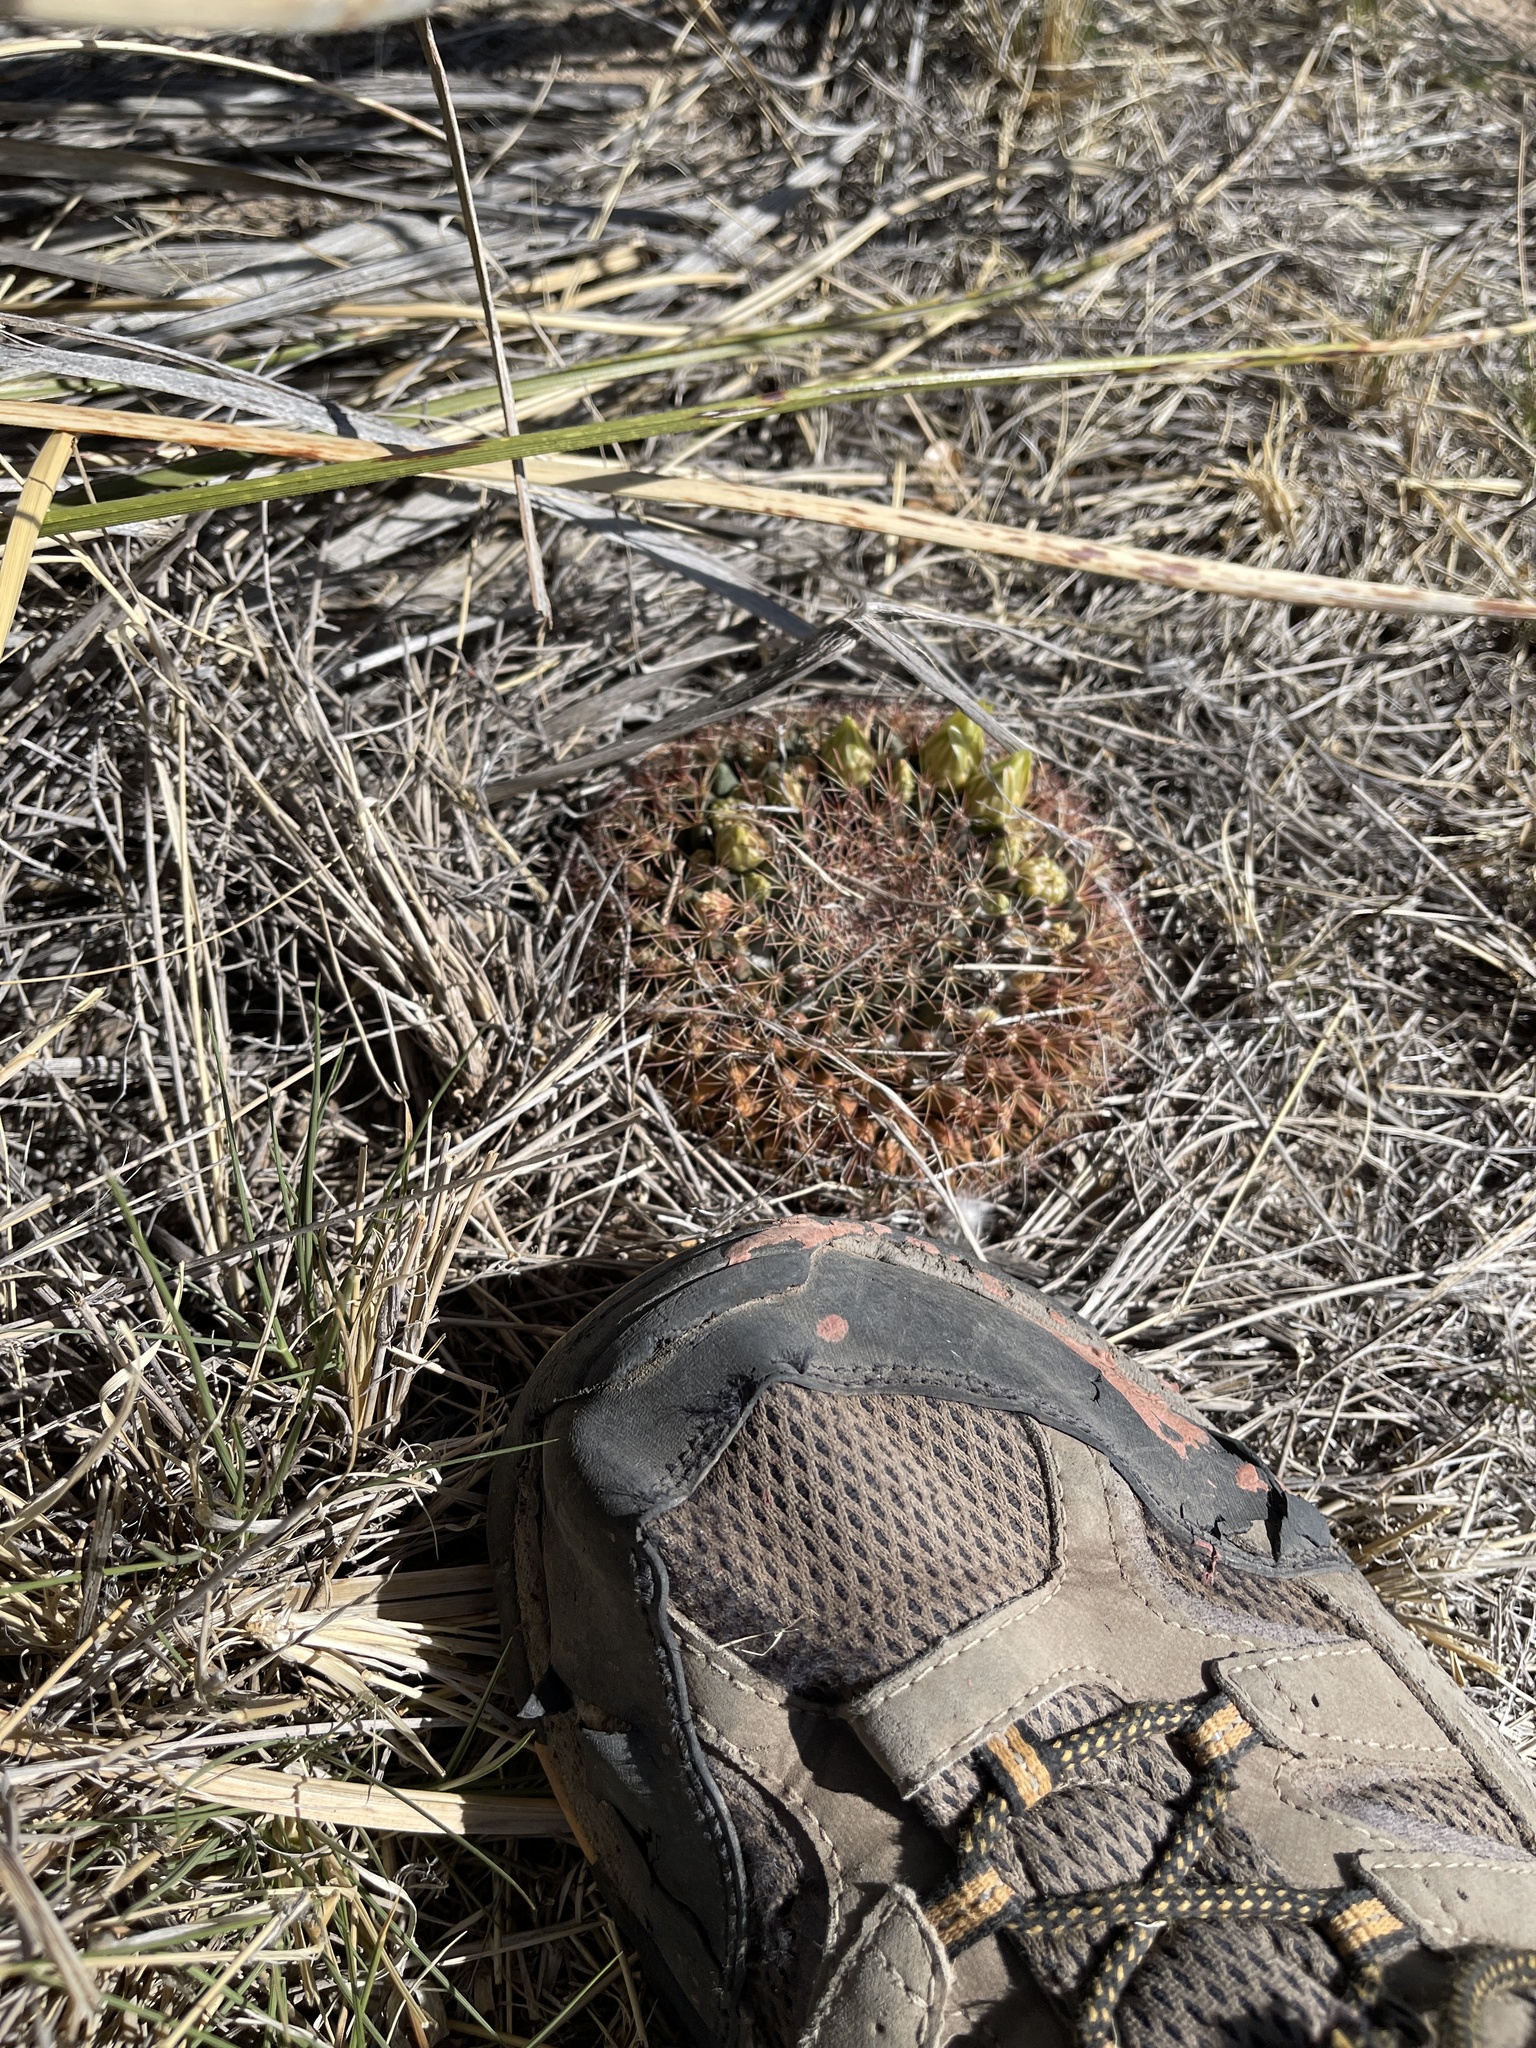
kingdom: Plantae
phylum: Tracheophyta
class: Magnoliopsida
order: Caryophyllales
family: Cactaceae
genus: Mammillaria
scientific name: Mammillaria heyderi
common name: Little nipple cactus
